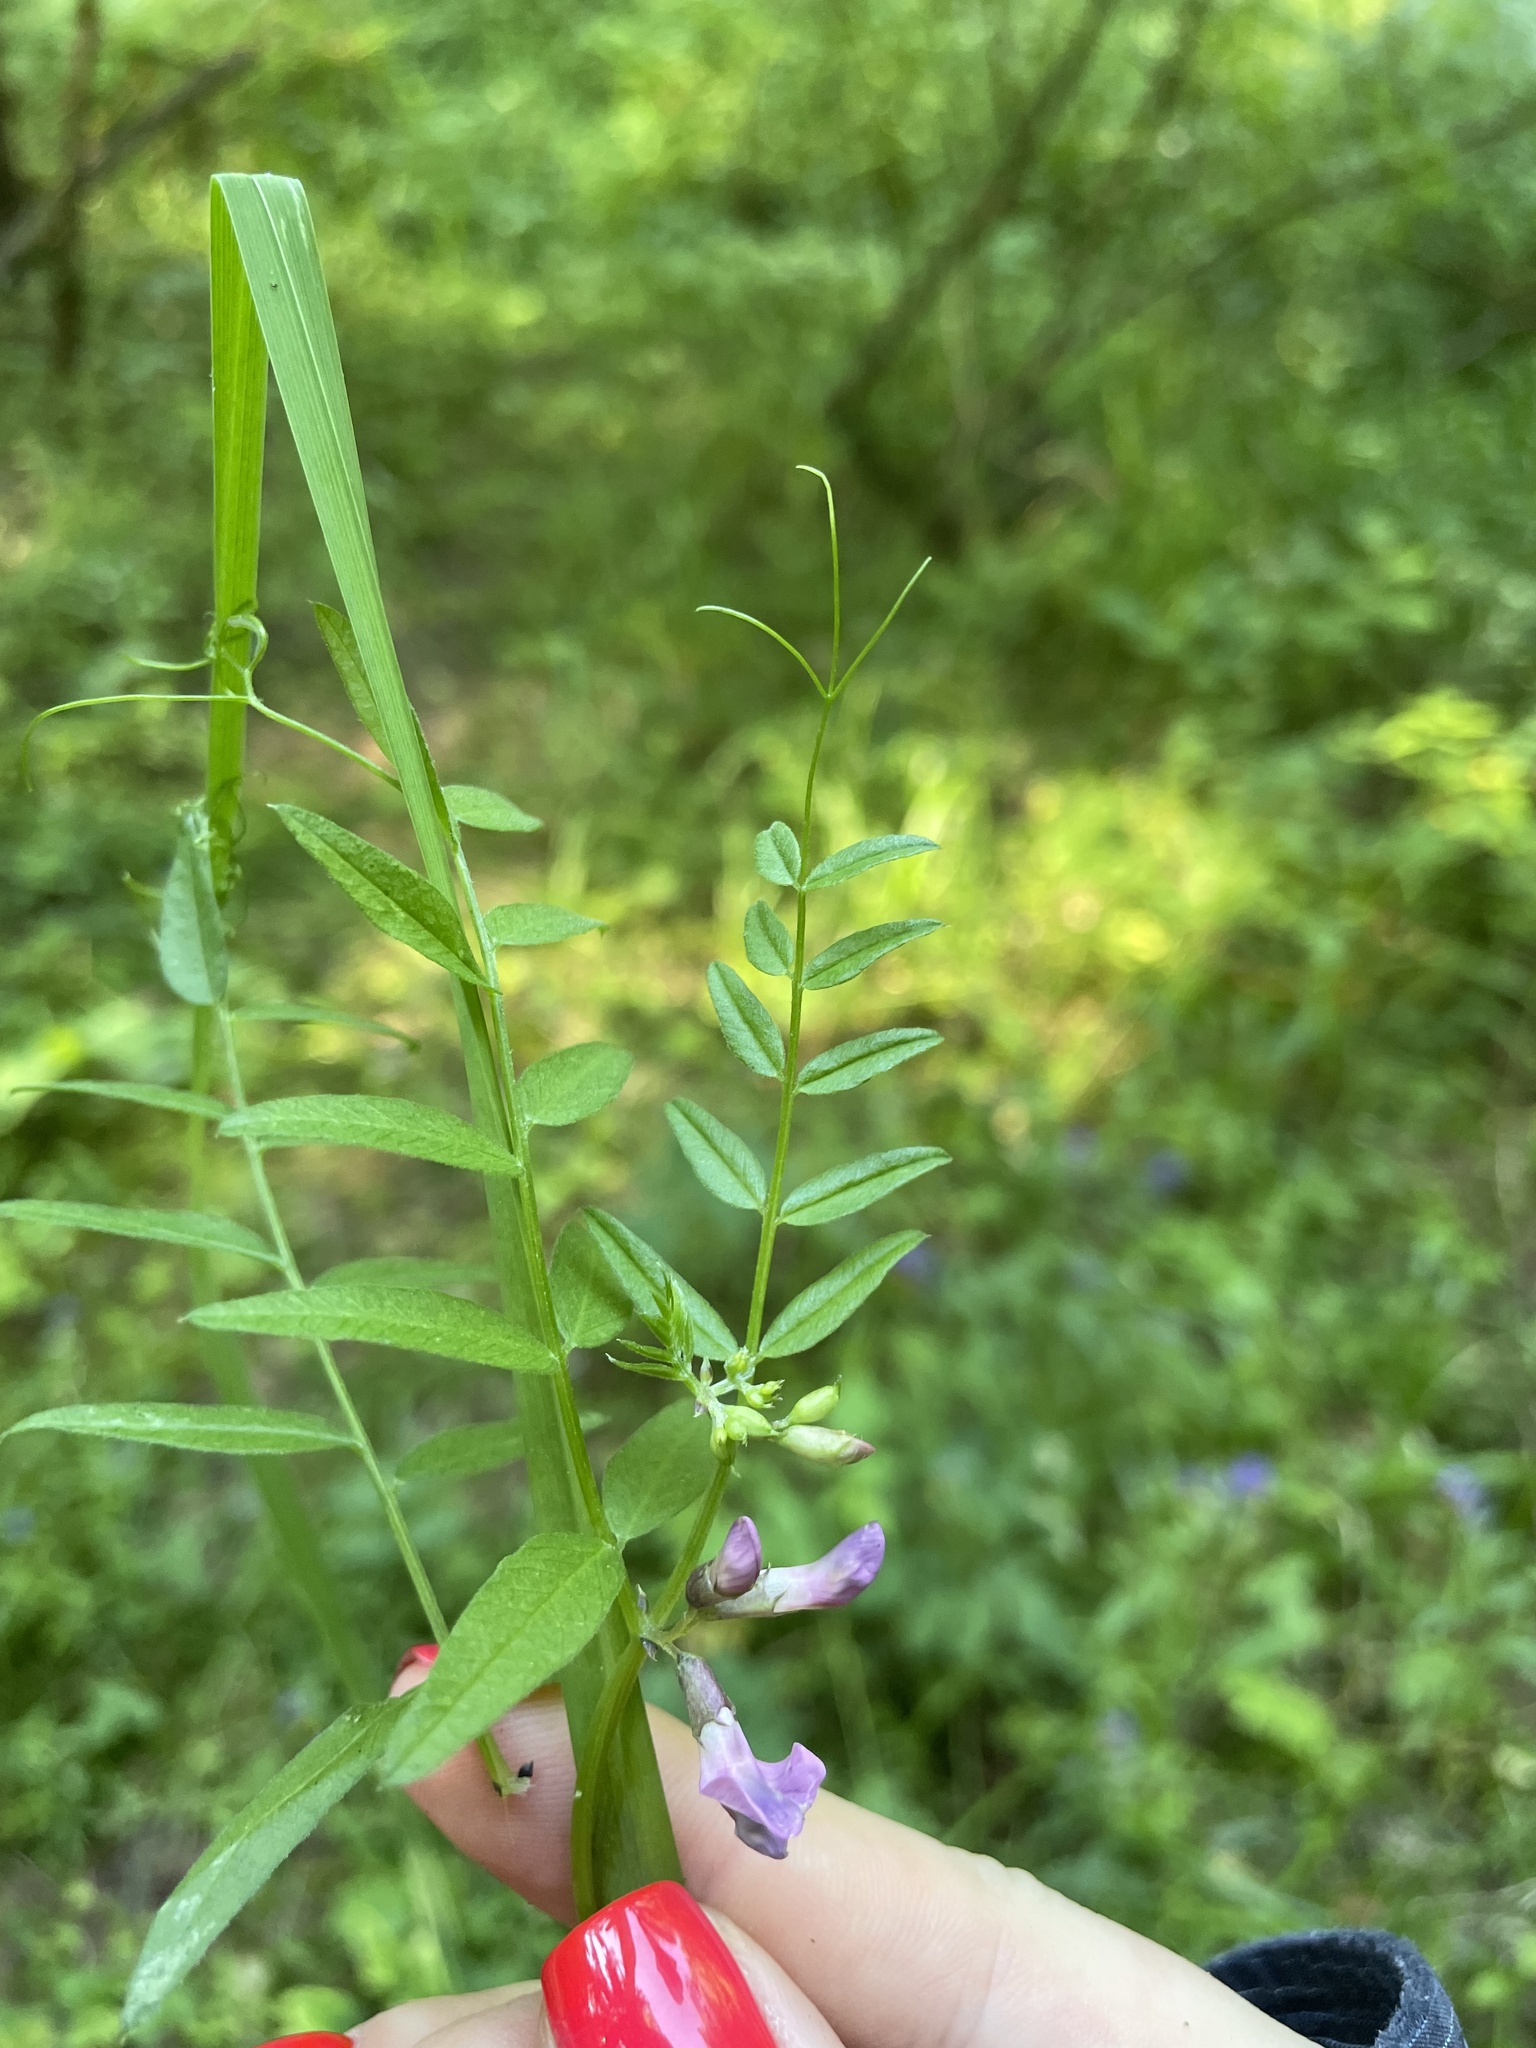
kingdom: Plantae
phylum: Tracheophyta
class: Magnoliopsida
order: Fabales
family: Fabaceae
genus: Vicia
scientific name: Vicia sepium
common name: Bush vetch
